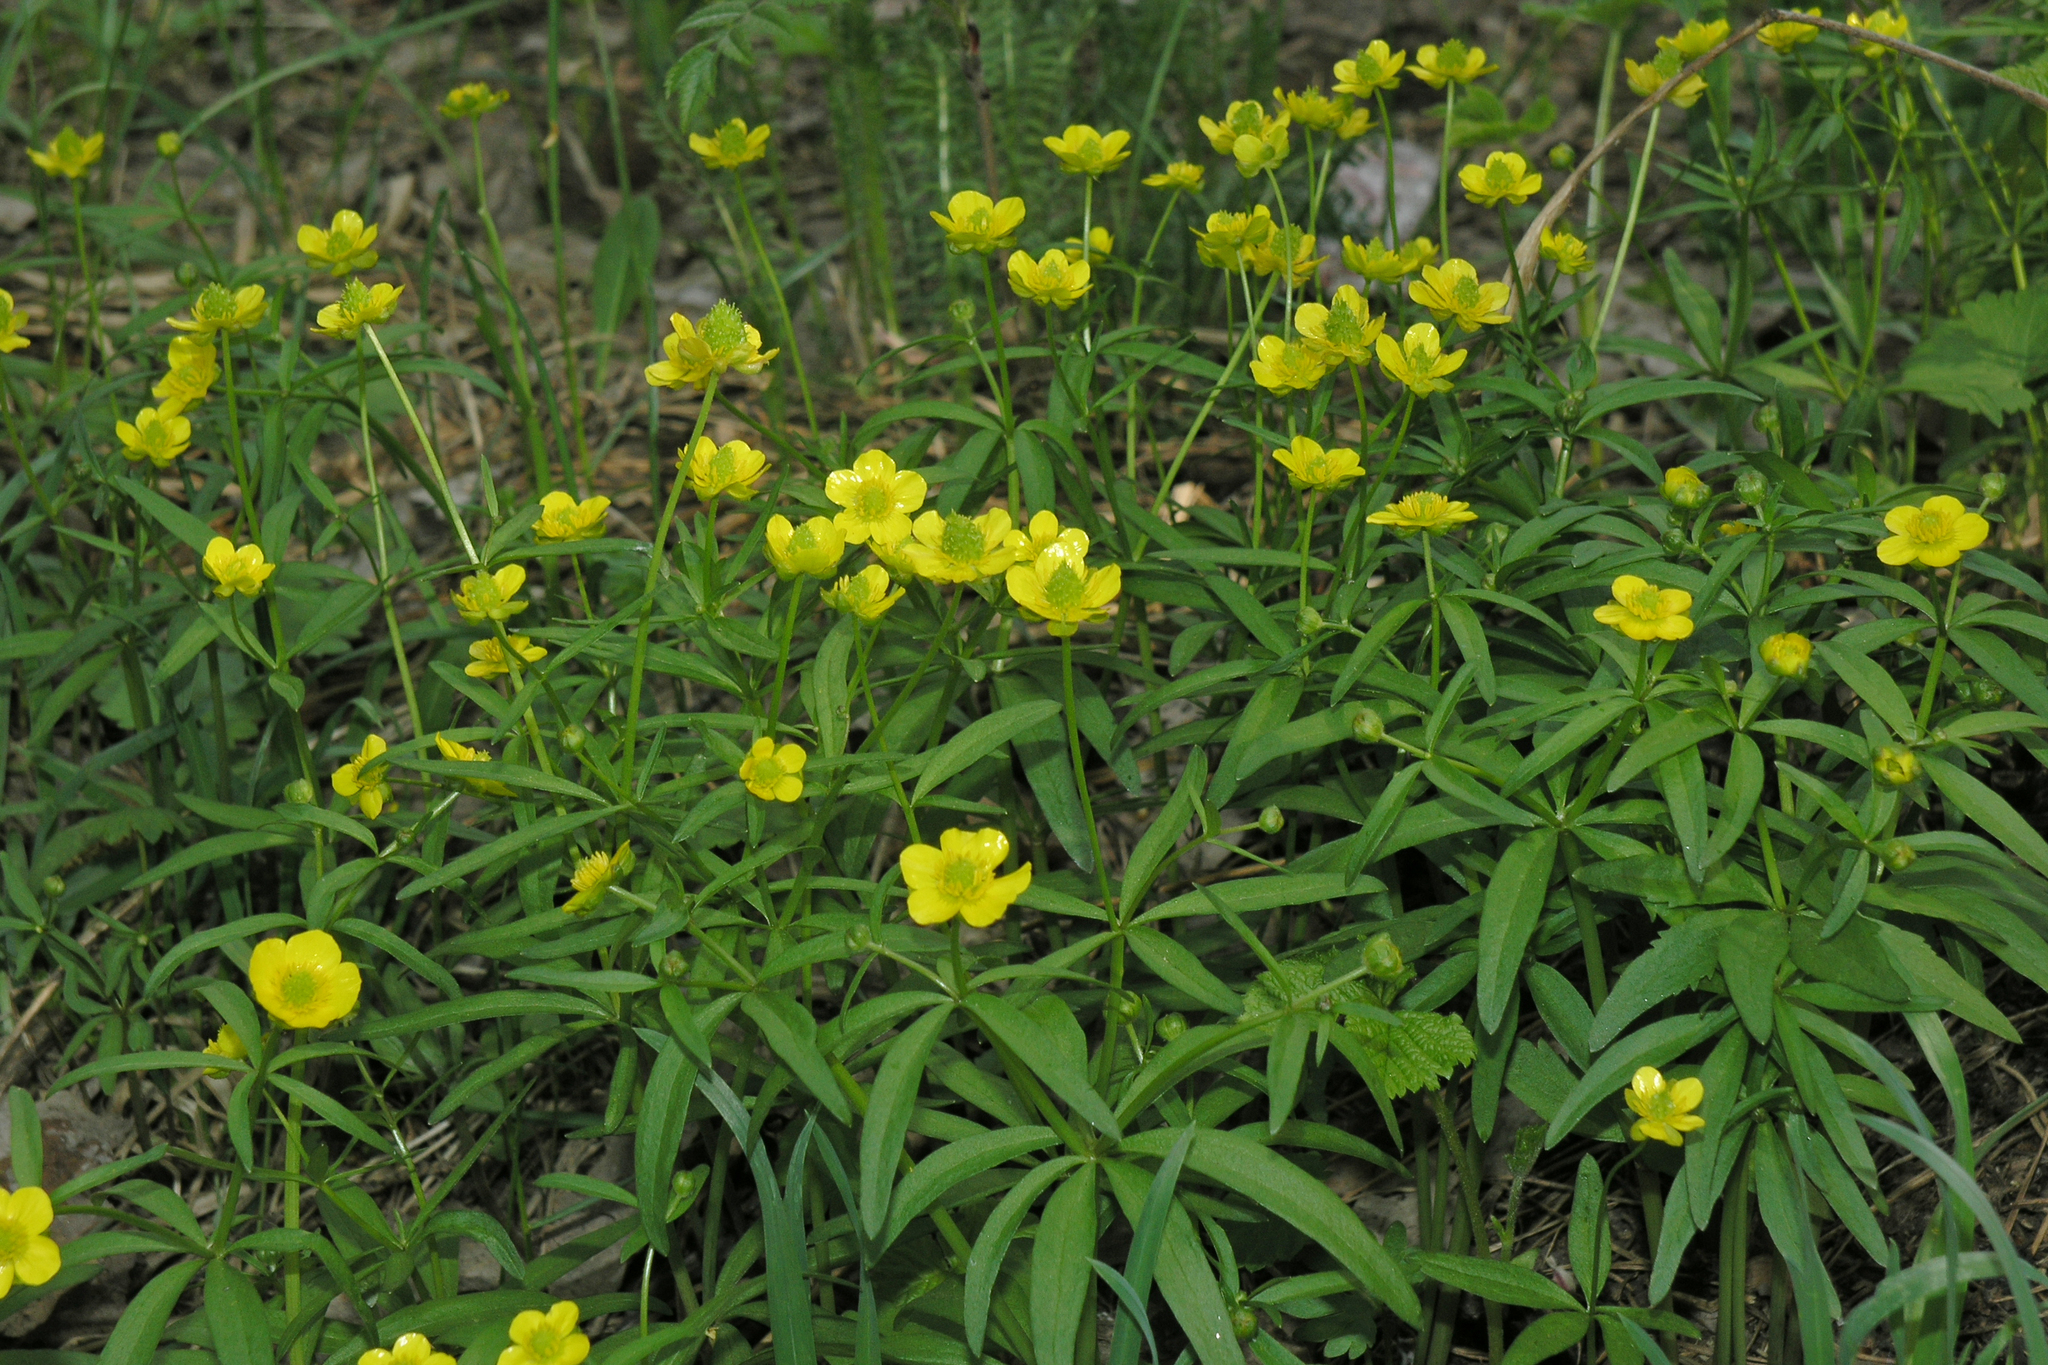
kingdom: Plantae
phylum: Tracheophyta
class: Magnoliopsida
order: Ranunculales
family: Ranunculaceae
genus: Ranunculus
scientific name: Ranunculus monophyllus
